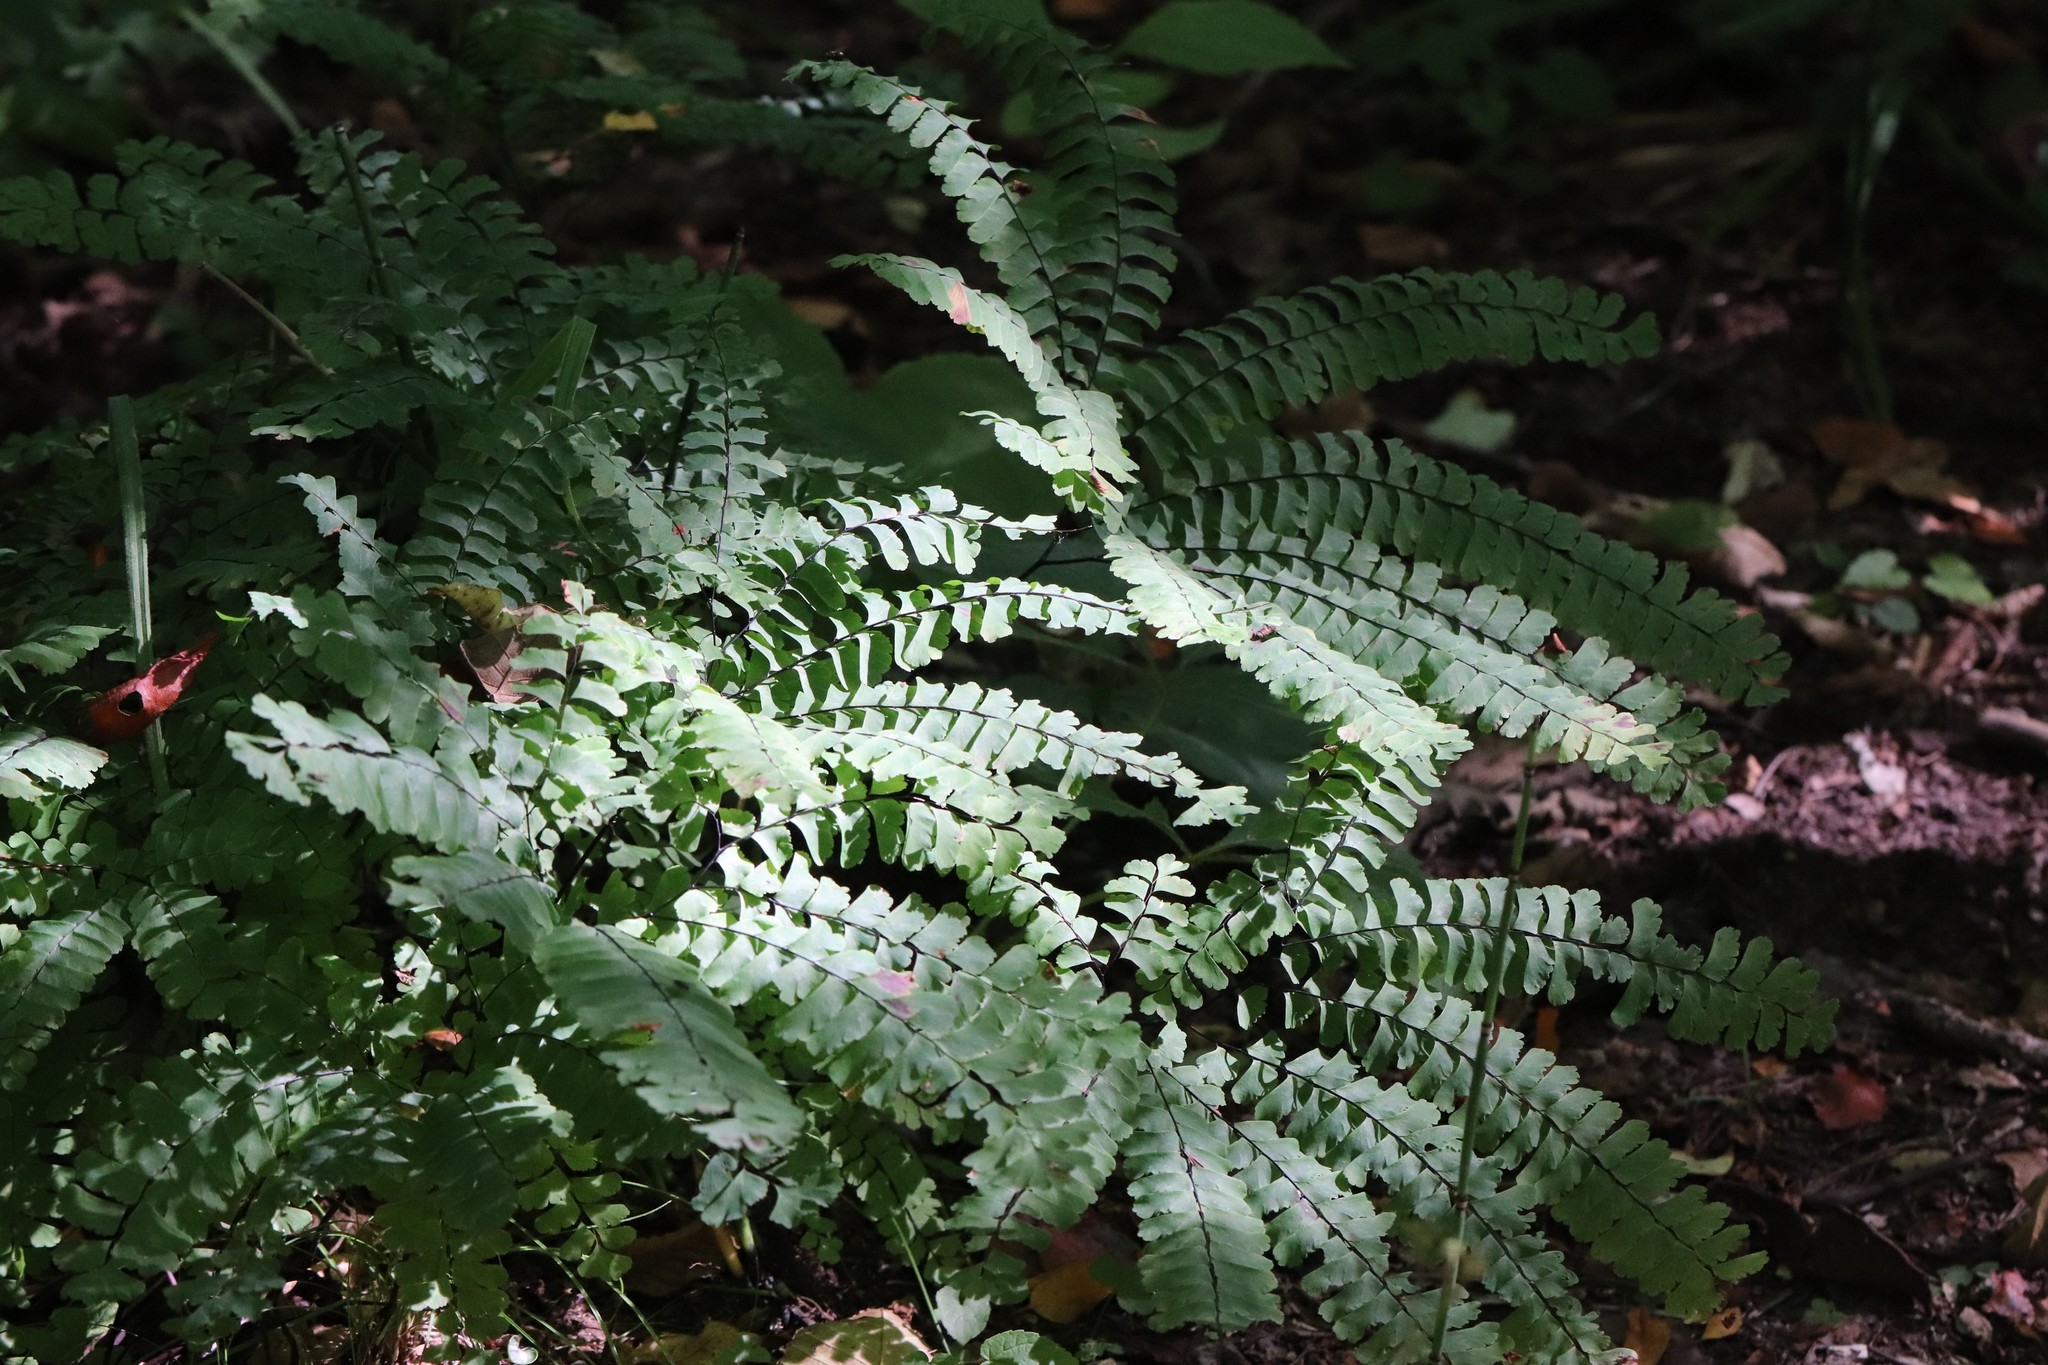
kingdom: Plantae
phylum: Tracheophyta
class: Polypodiopsida
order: Polypodiales
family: Pteridaceae
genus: Adiantum
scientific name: Adiantum pedatum
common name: Five-finger fern
